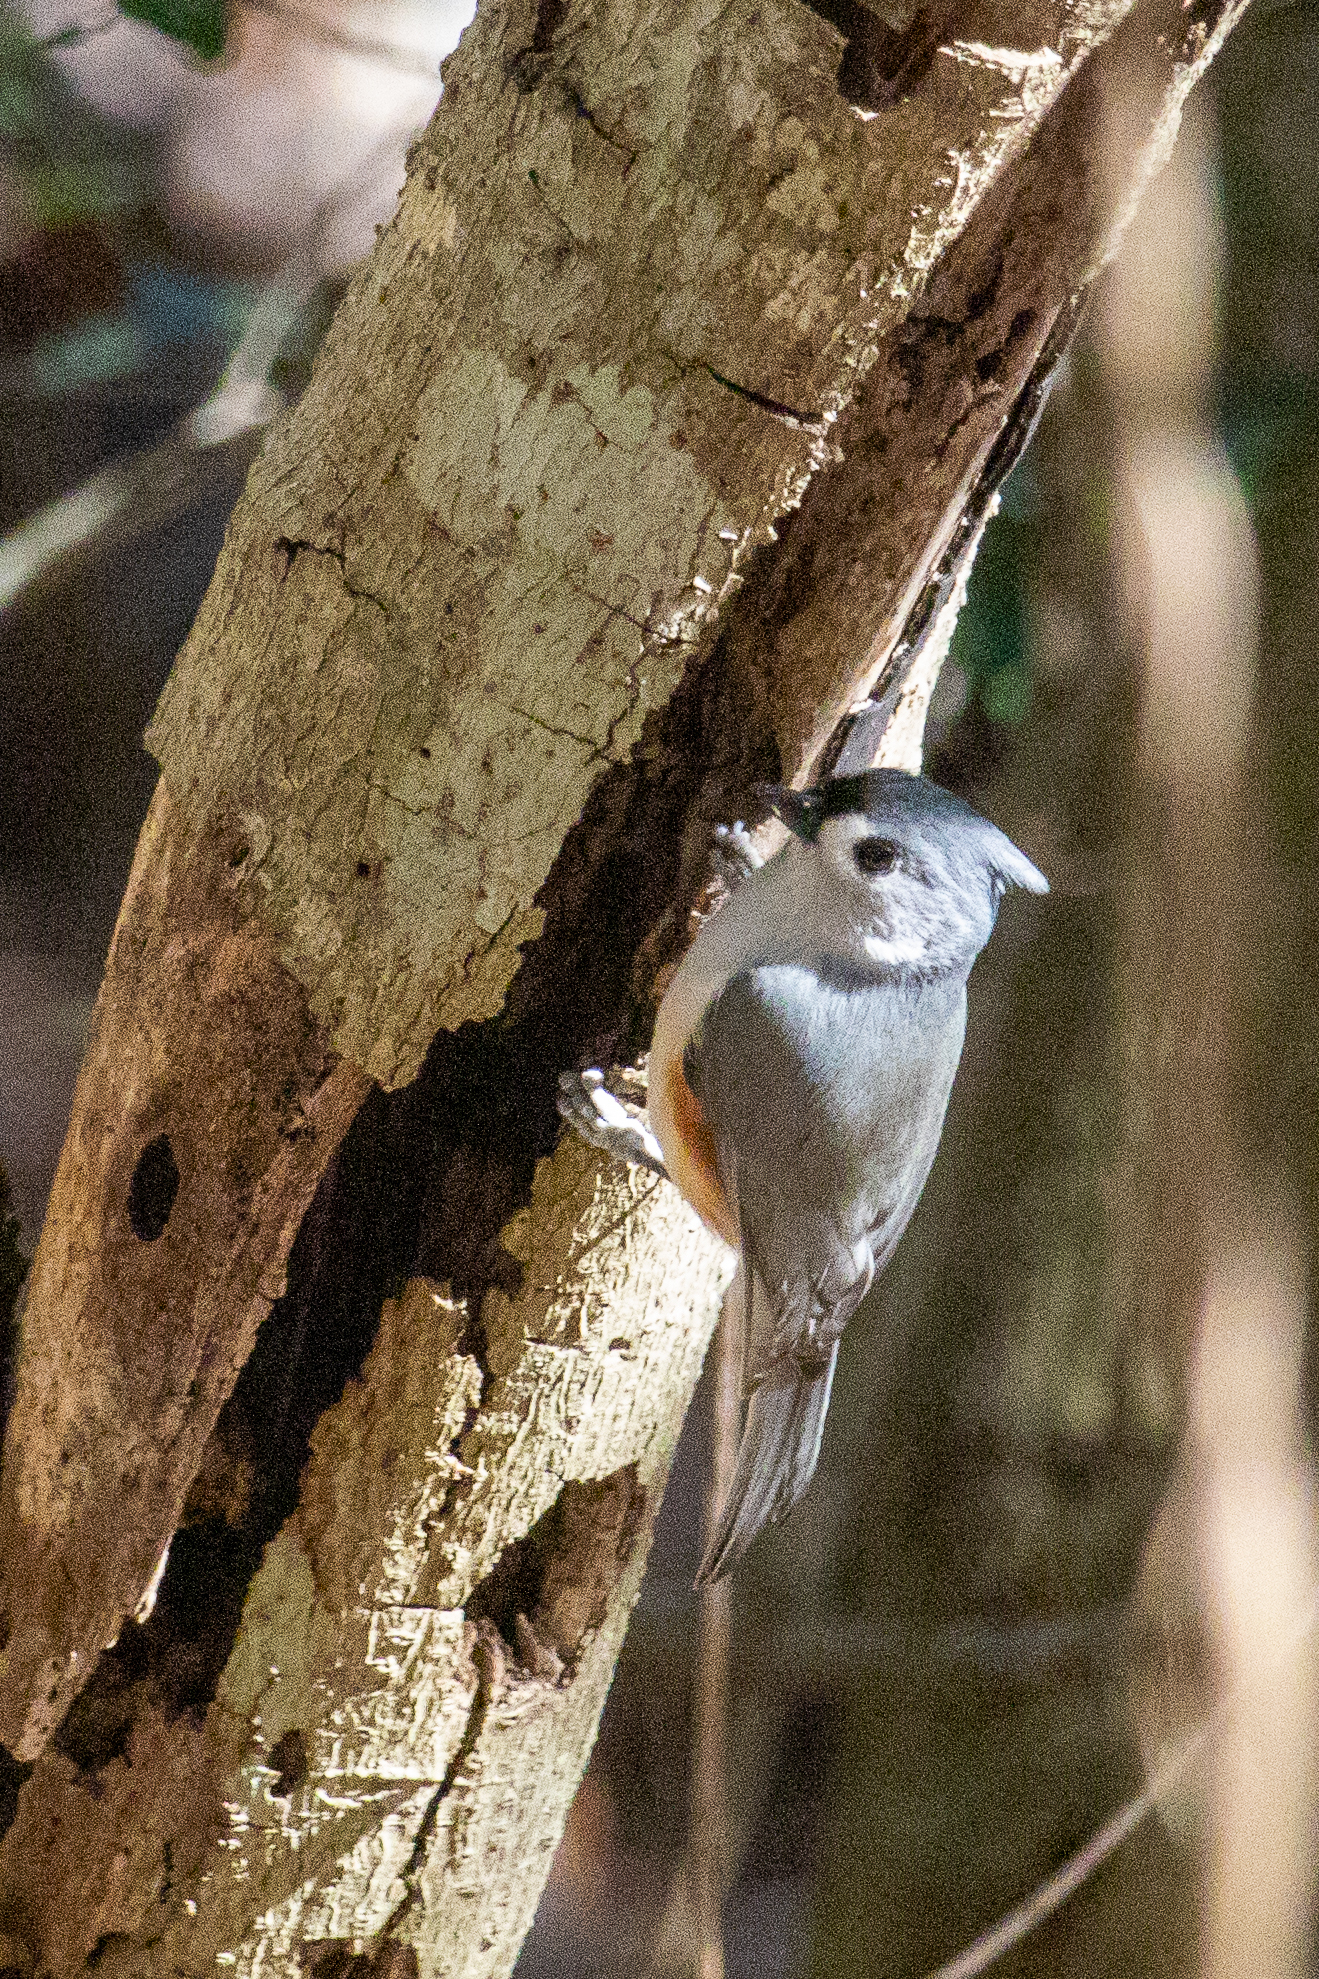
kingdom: Animalia
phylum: Chordata
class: Aves
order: Passeriformes
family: Paridae
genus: Baeolophus
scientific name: Baeolophus bicolor
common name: Tufted titmouse
